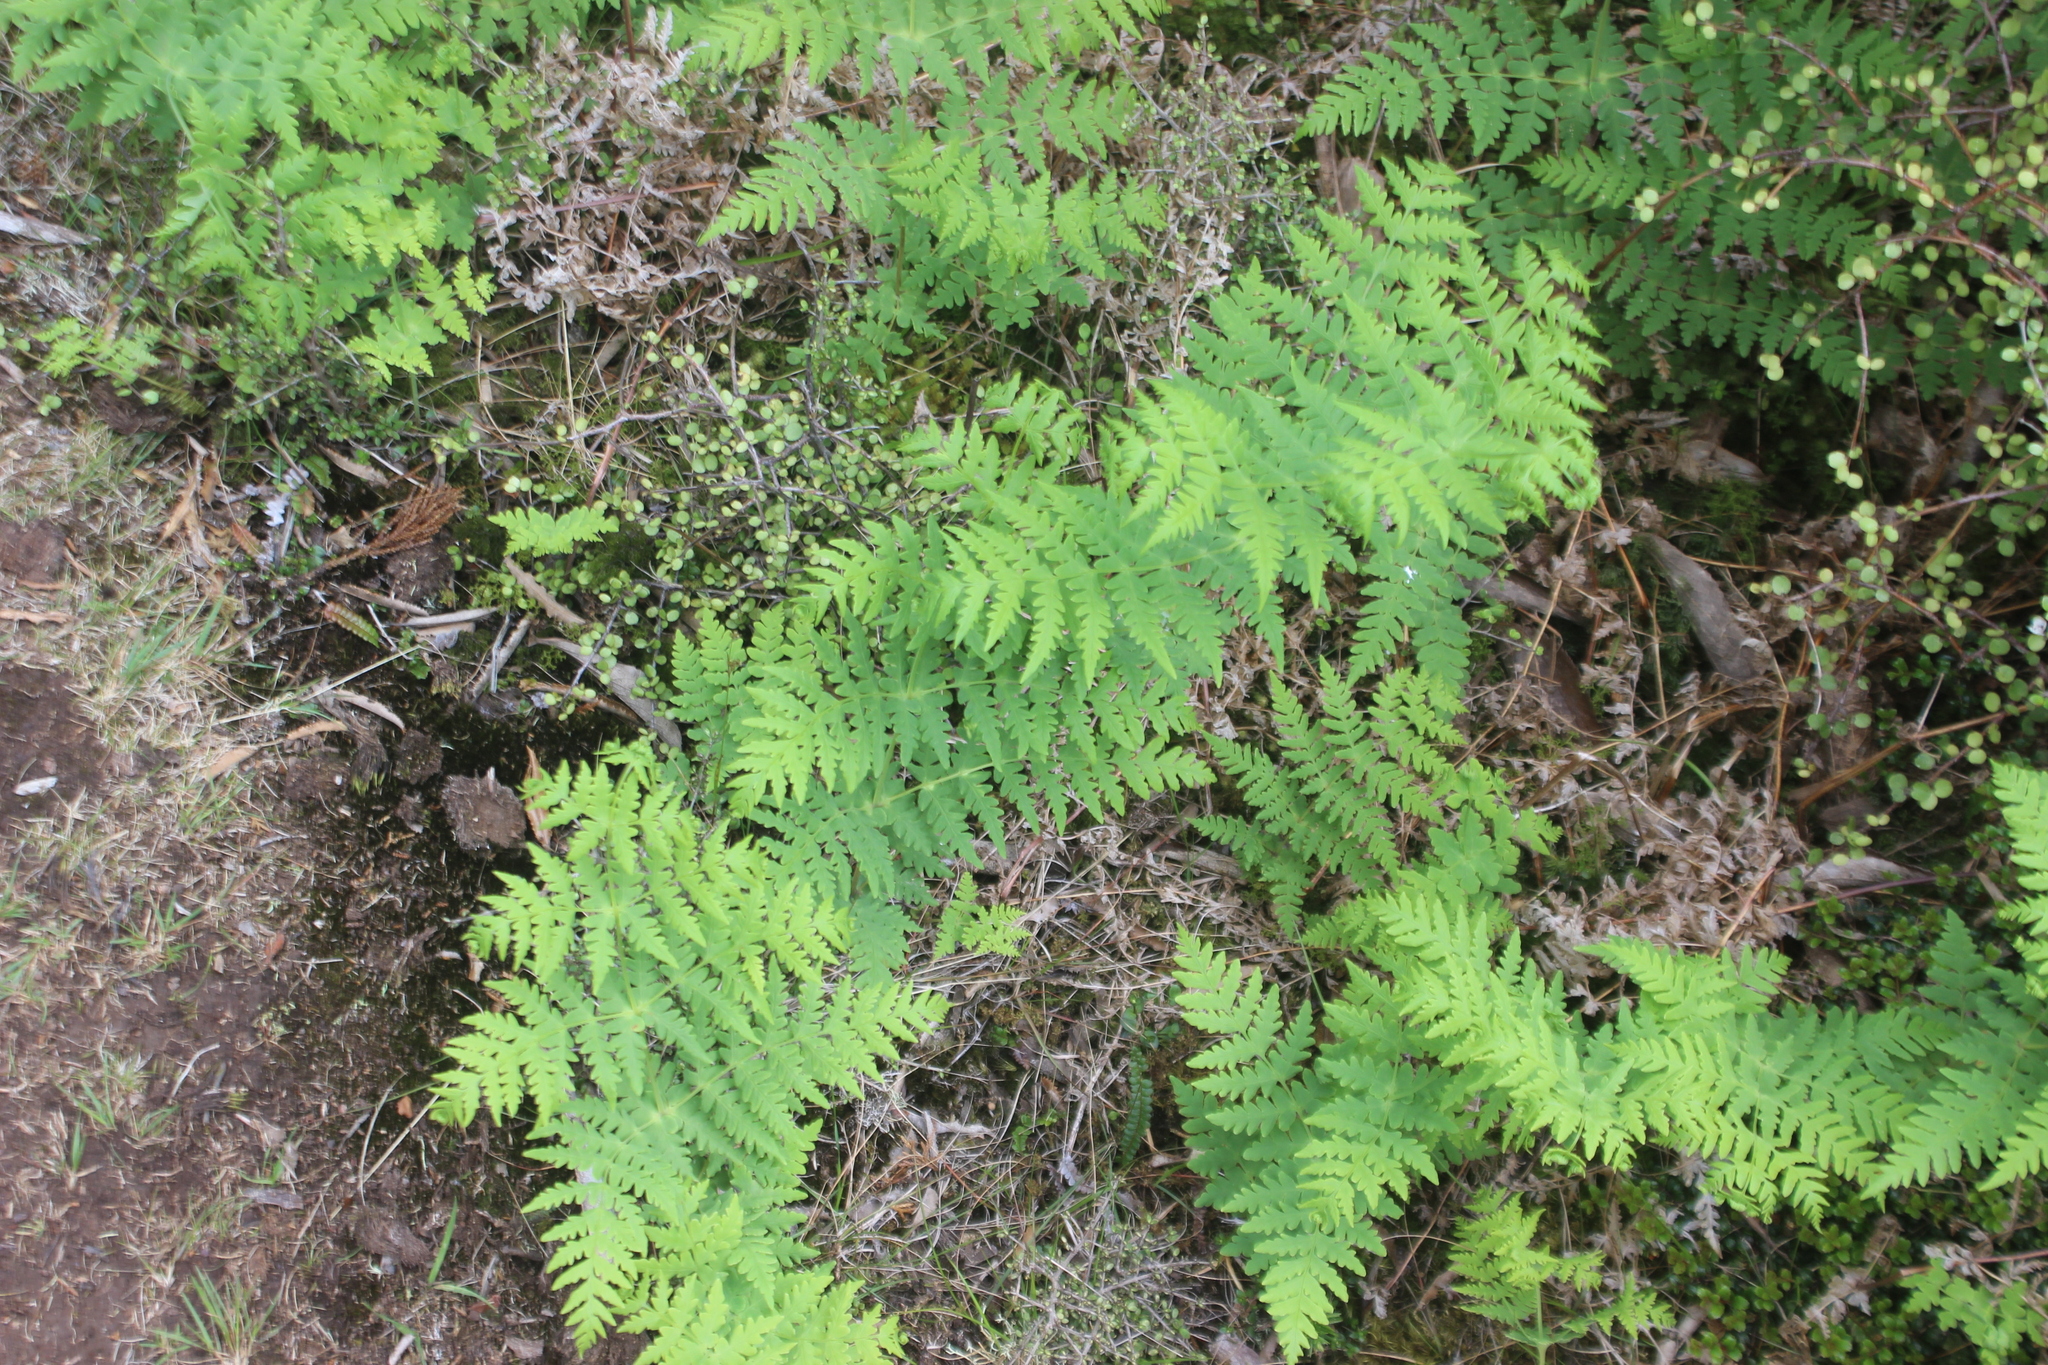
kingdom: Plantae
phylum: Tracheophyta
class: Polypodiopsida
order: Polypodiales
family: Dennstaedtiaceae
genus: Histiopteris
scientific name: Histiopteris incisa
